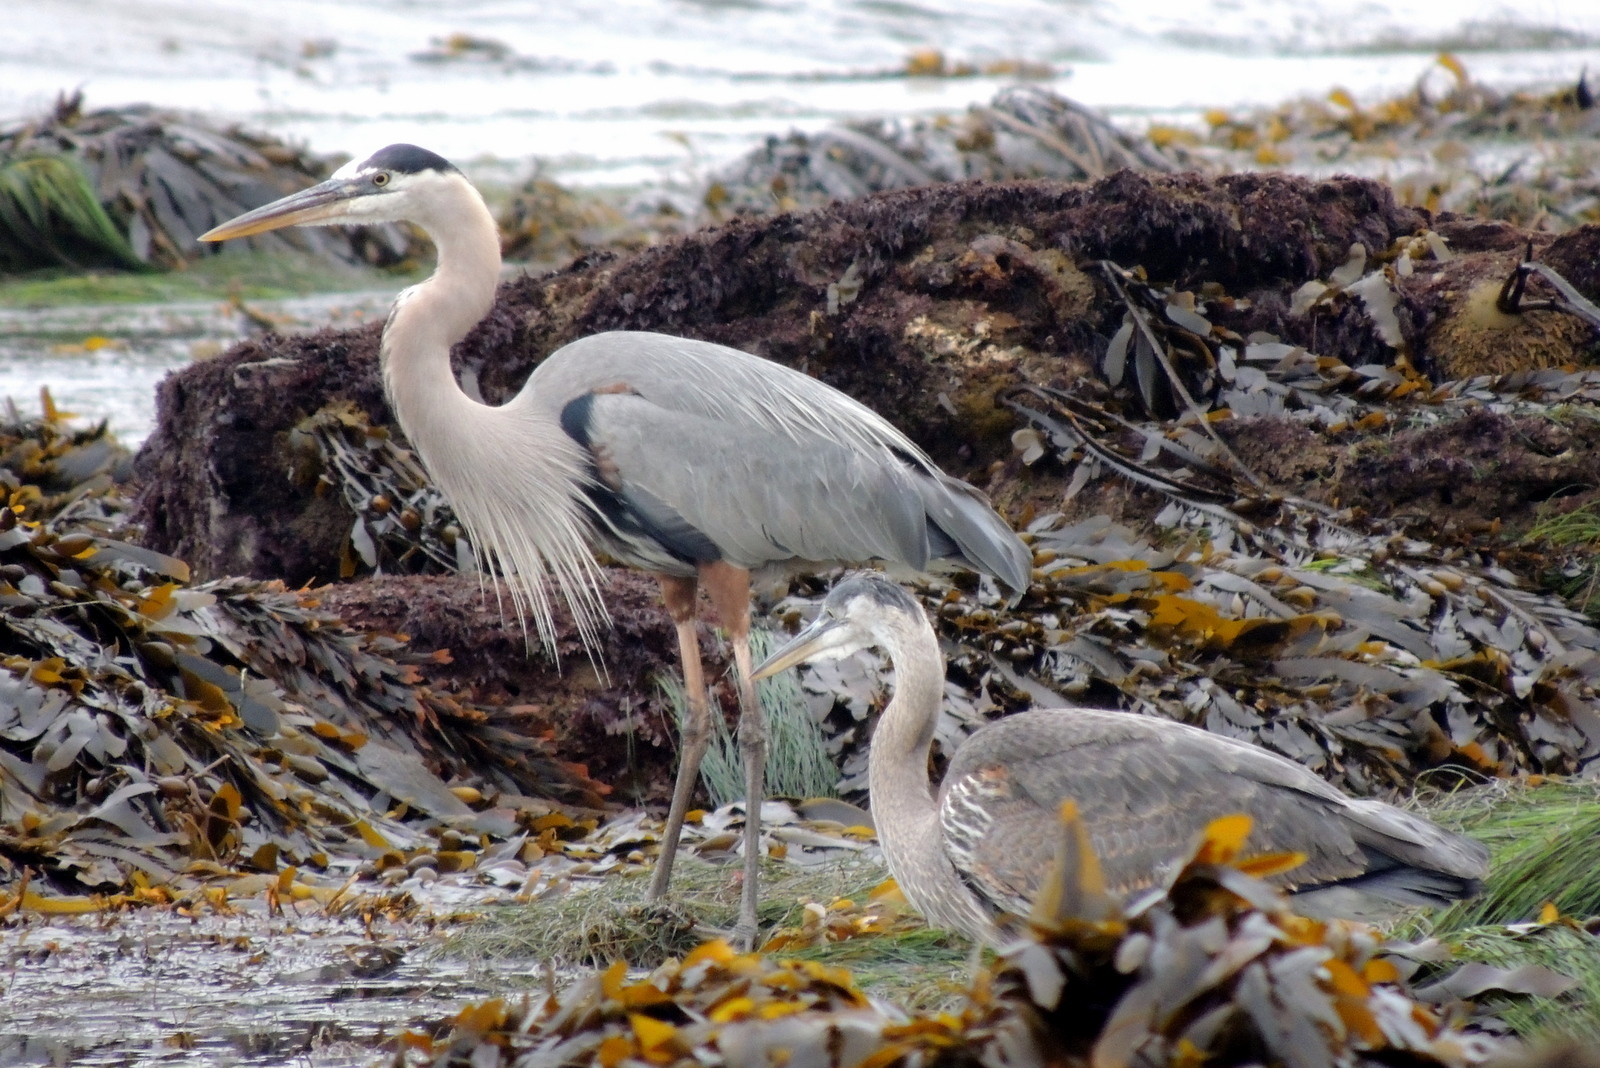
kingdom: Animalia
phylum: Chordata
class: Aves
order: Pelecaniformes
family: Ardeidae
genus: Ardea
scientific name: Ardea herodias
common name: Great blue heron
